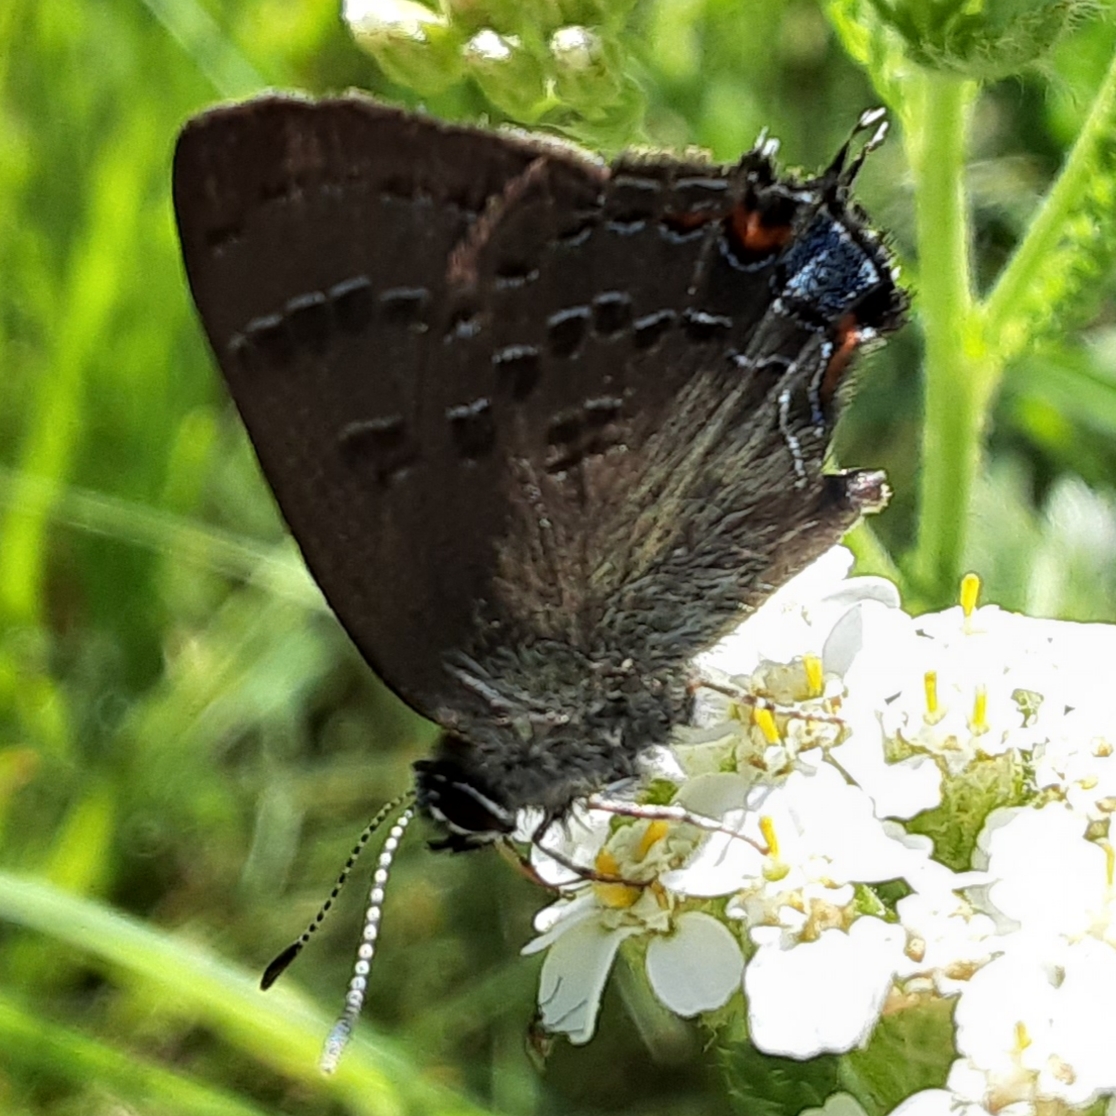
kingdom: Animalia
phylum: Arthropoda
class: Insecta
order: Lepidoptera
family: Lycaenidae
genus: Satyrium
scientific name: Satyrium calanus
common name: Banded hairstreak
